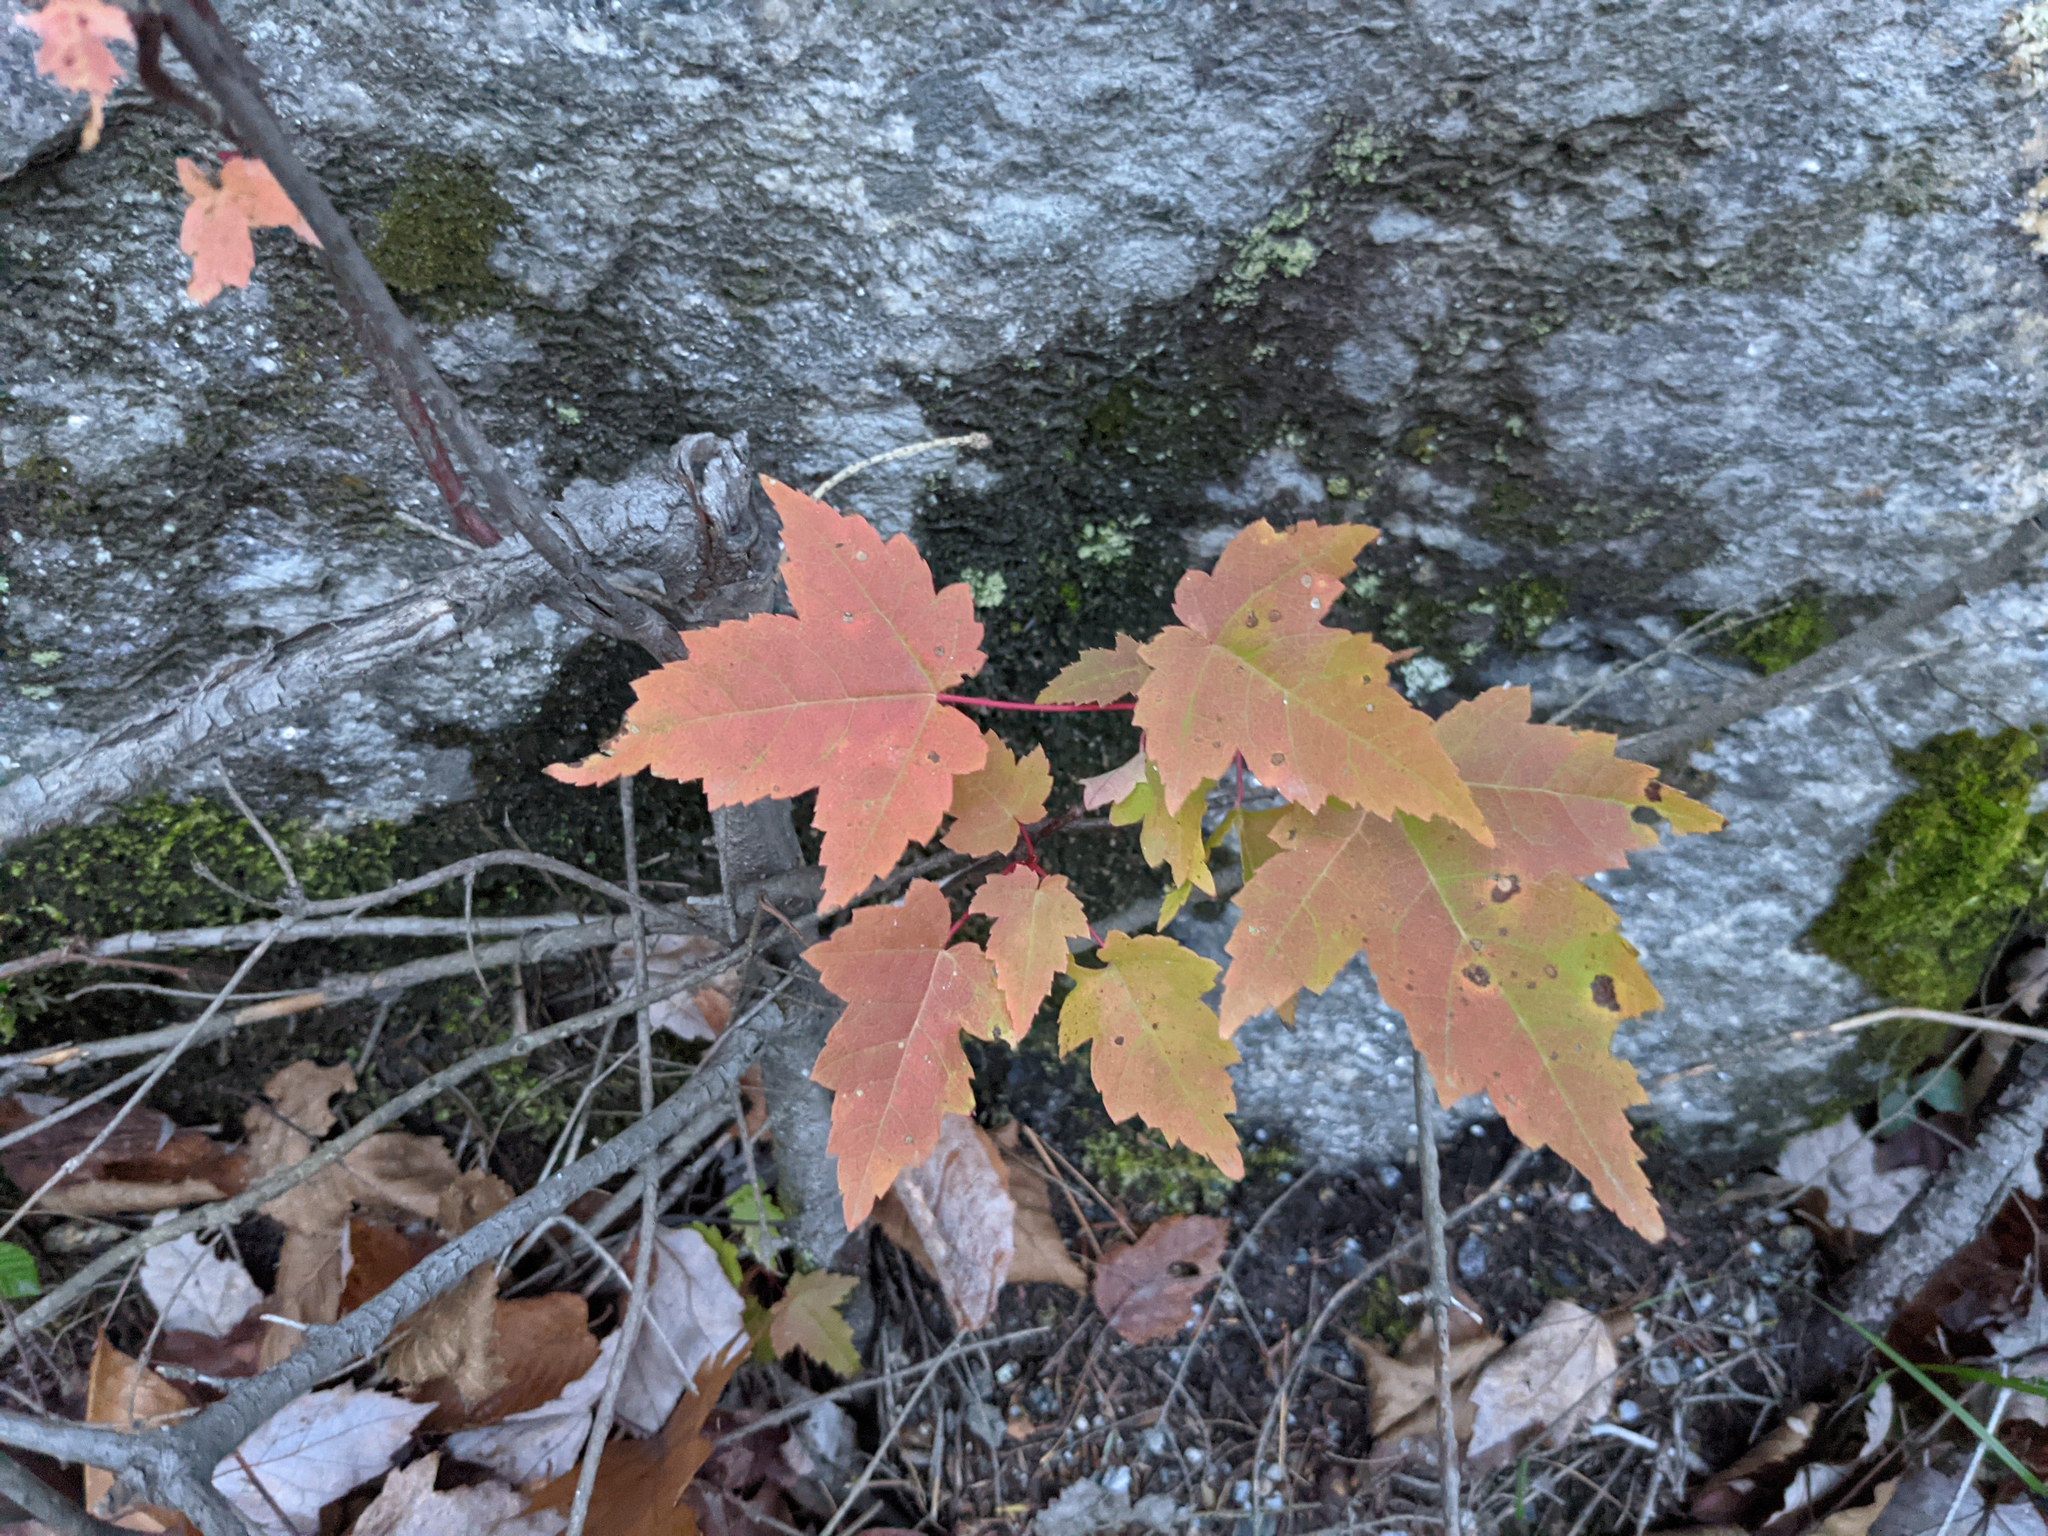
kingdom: Plantae
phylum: Tracheophyta
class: Magnoliopsida
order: Sapindales
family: Sapindaceae
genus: Acer
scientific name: Acer rubrum
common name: Red maple
